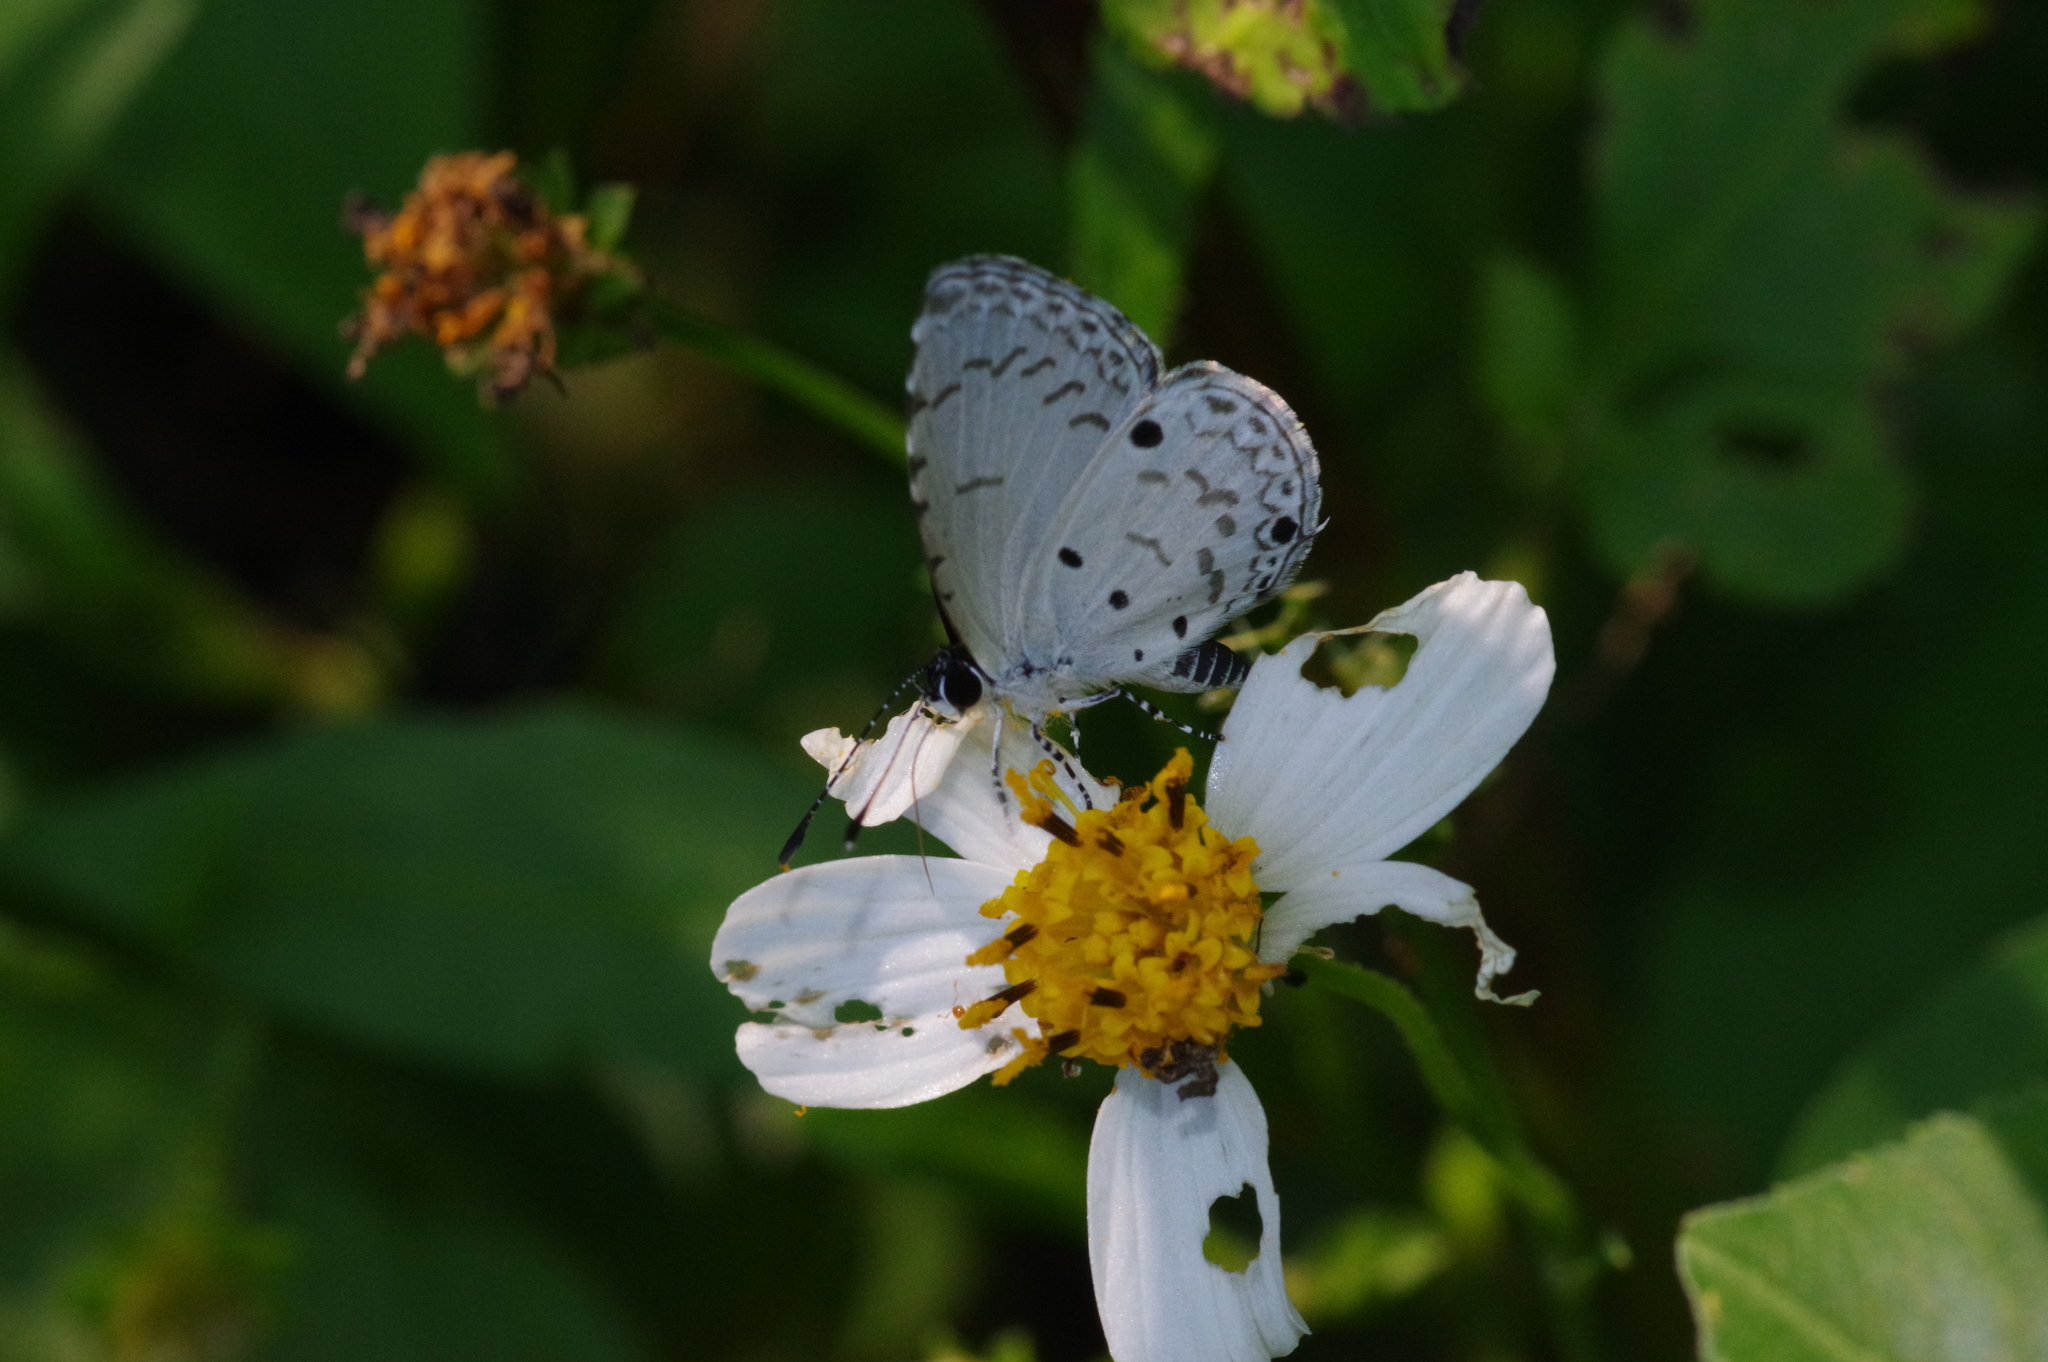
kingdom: Animalia
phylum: Arthropoda
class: Insecta
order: Lepidoptera
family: Lycaenidae
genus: Megisba
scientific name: Megisba malaya
